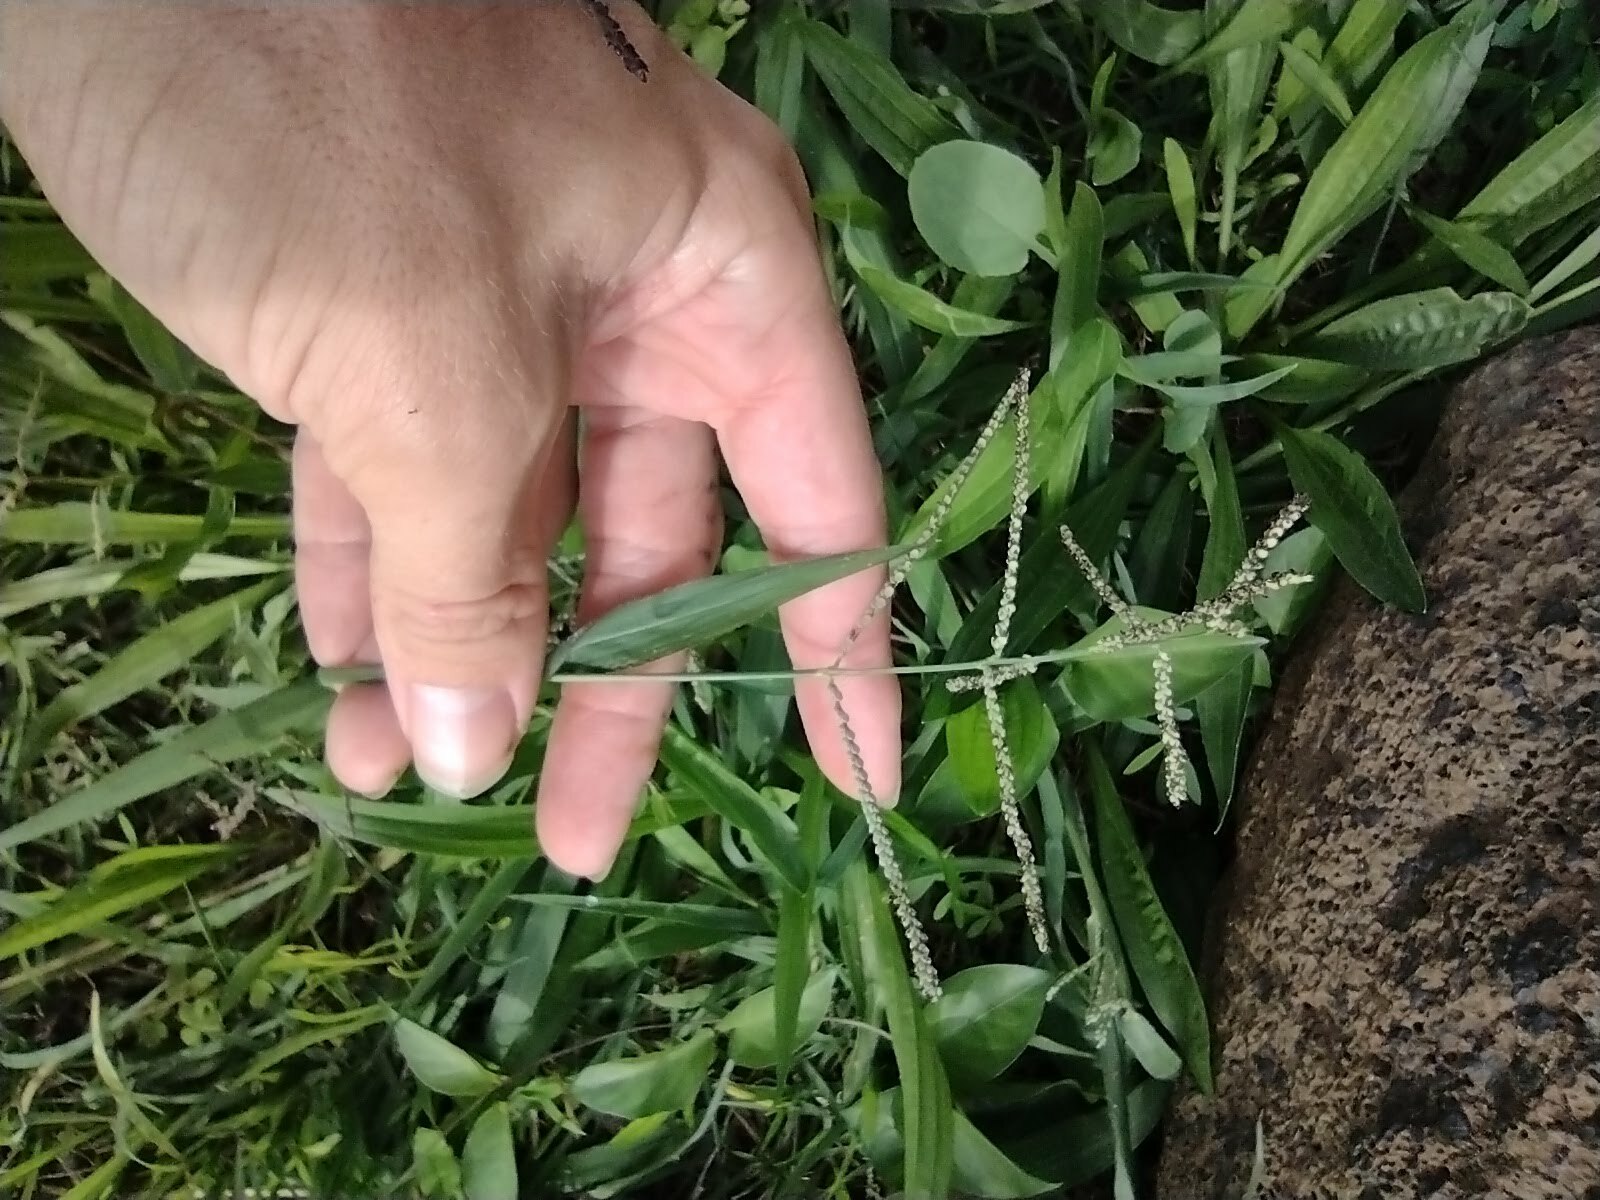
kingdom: Plantae
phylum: Tracheophyta
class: Liliopsida
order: Poales
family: Poaceae
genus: Paspalum
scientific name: Paspalum paniculatum
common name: Arrocillo
